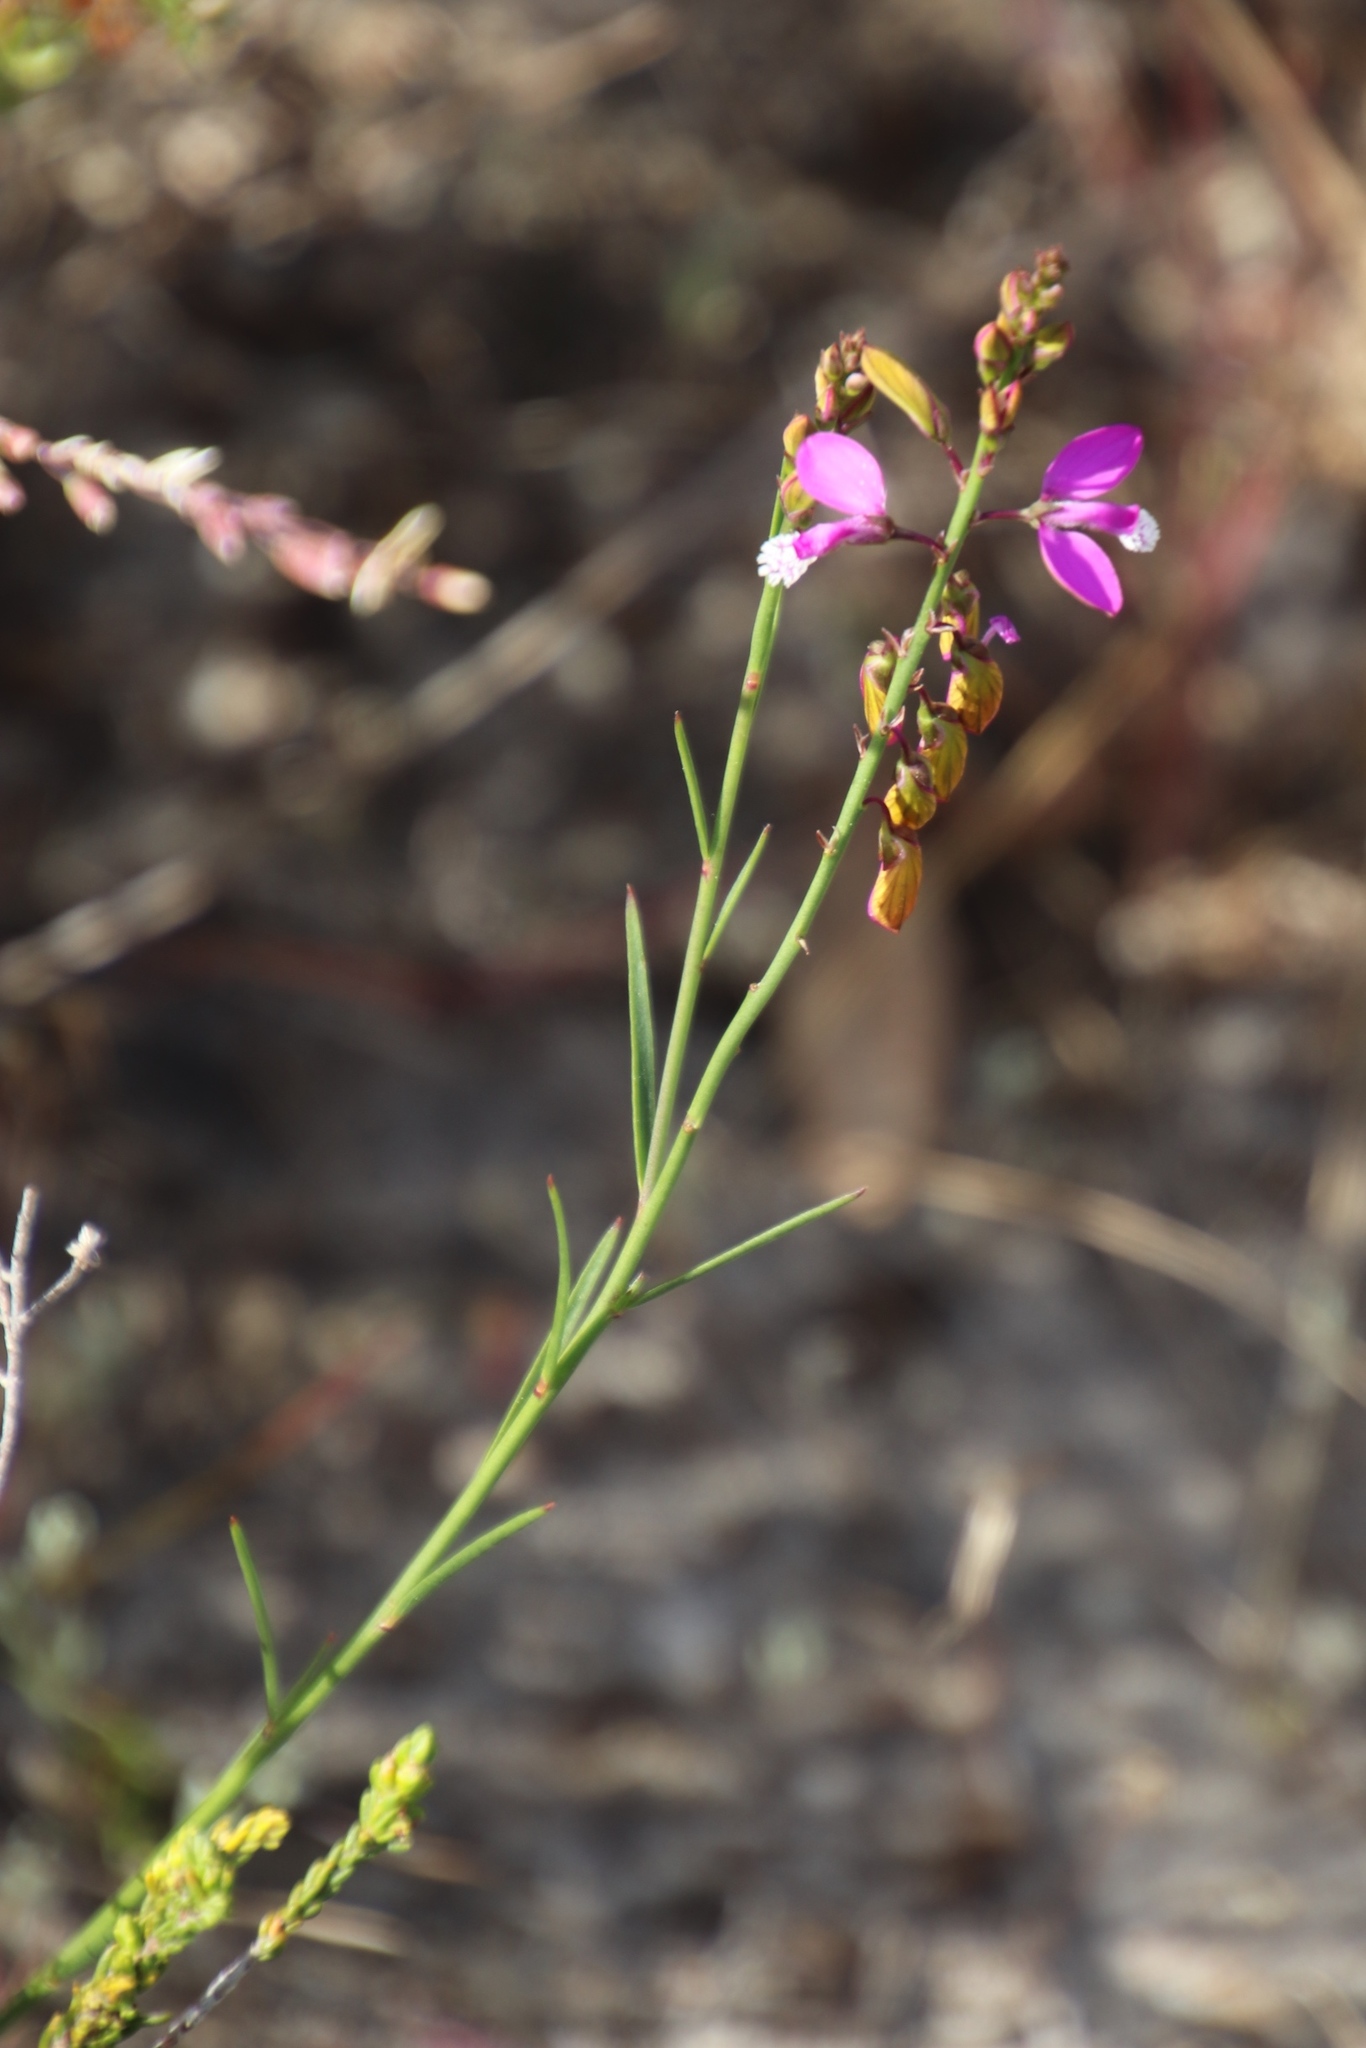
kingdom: Plantae
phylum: Tracheophyta
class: Magnoliopsida
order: Fabales
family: Polygalaceae
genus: Polygala
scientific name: Polygala garcini
